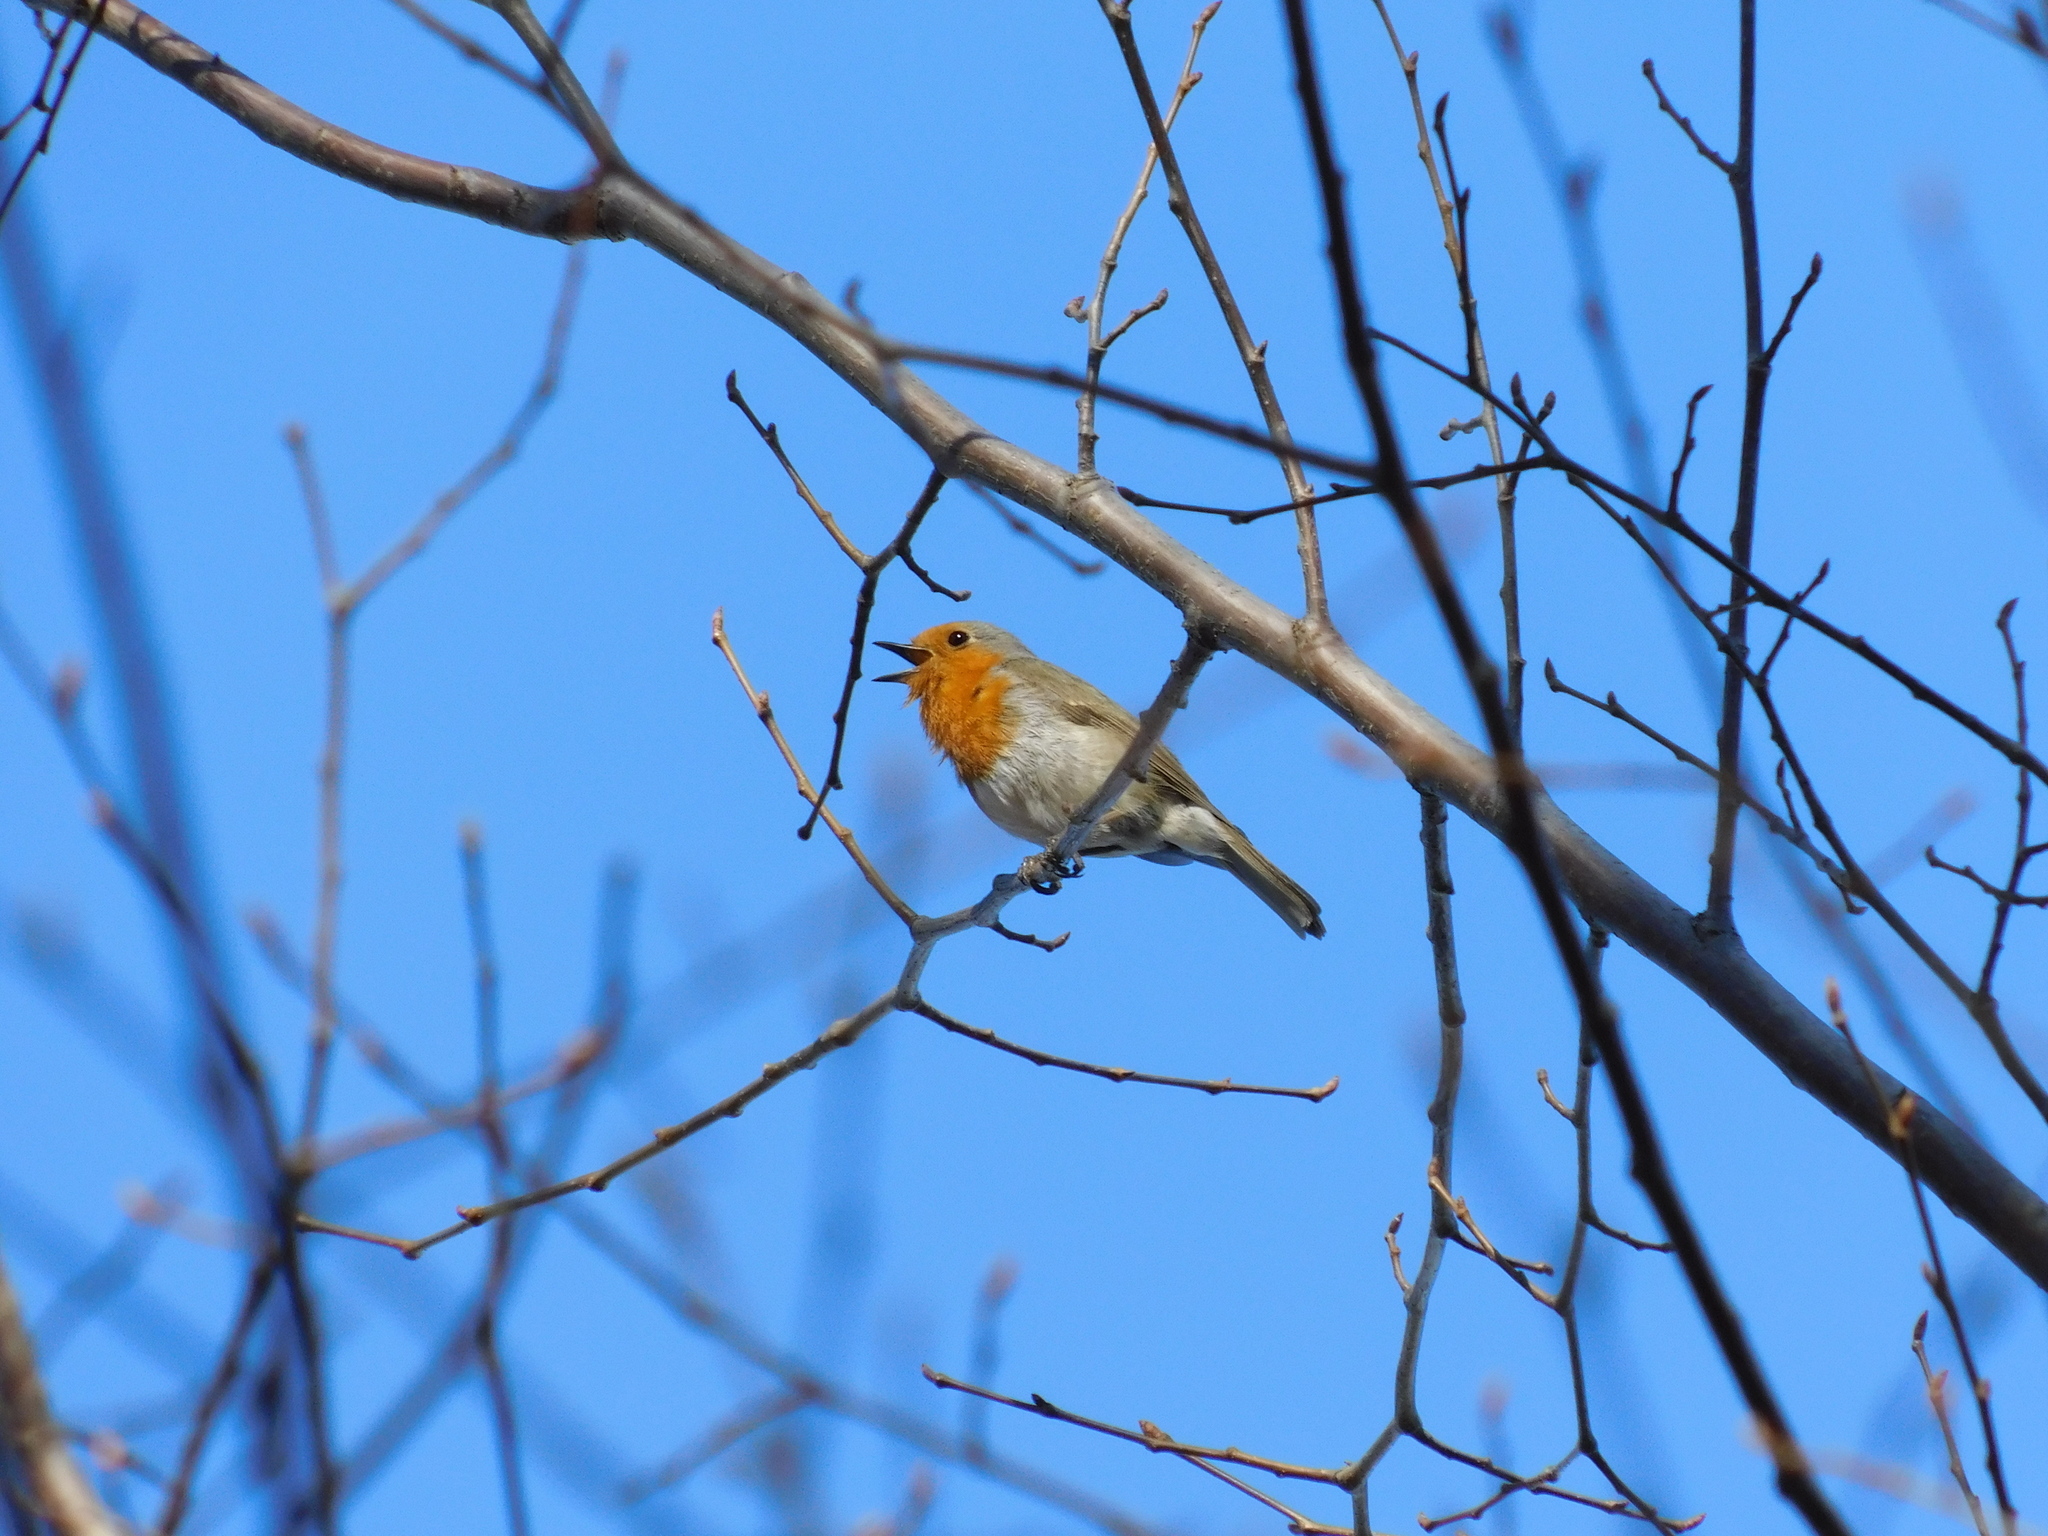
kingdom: Animalia
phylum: Chordata
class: Aves
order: Passeriformes
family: Muscicapidae
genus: Erithacus
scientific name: Erithacus rubecula
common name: European robin
